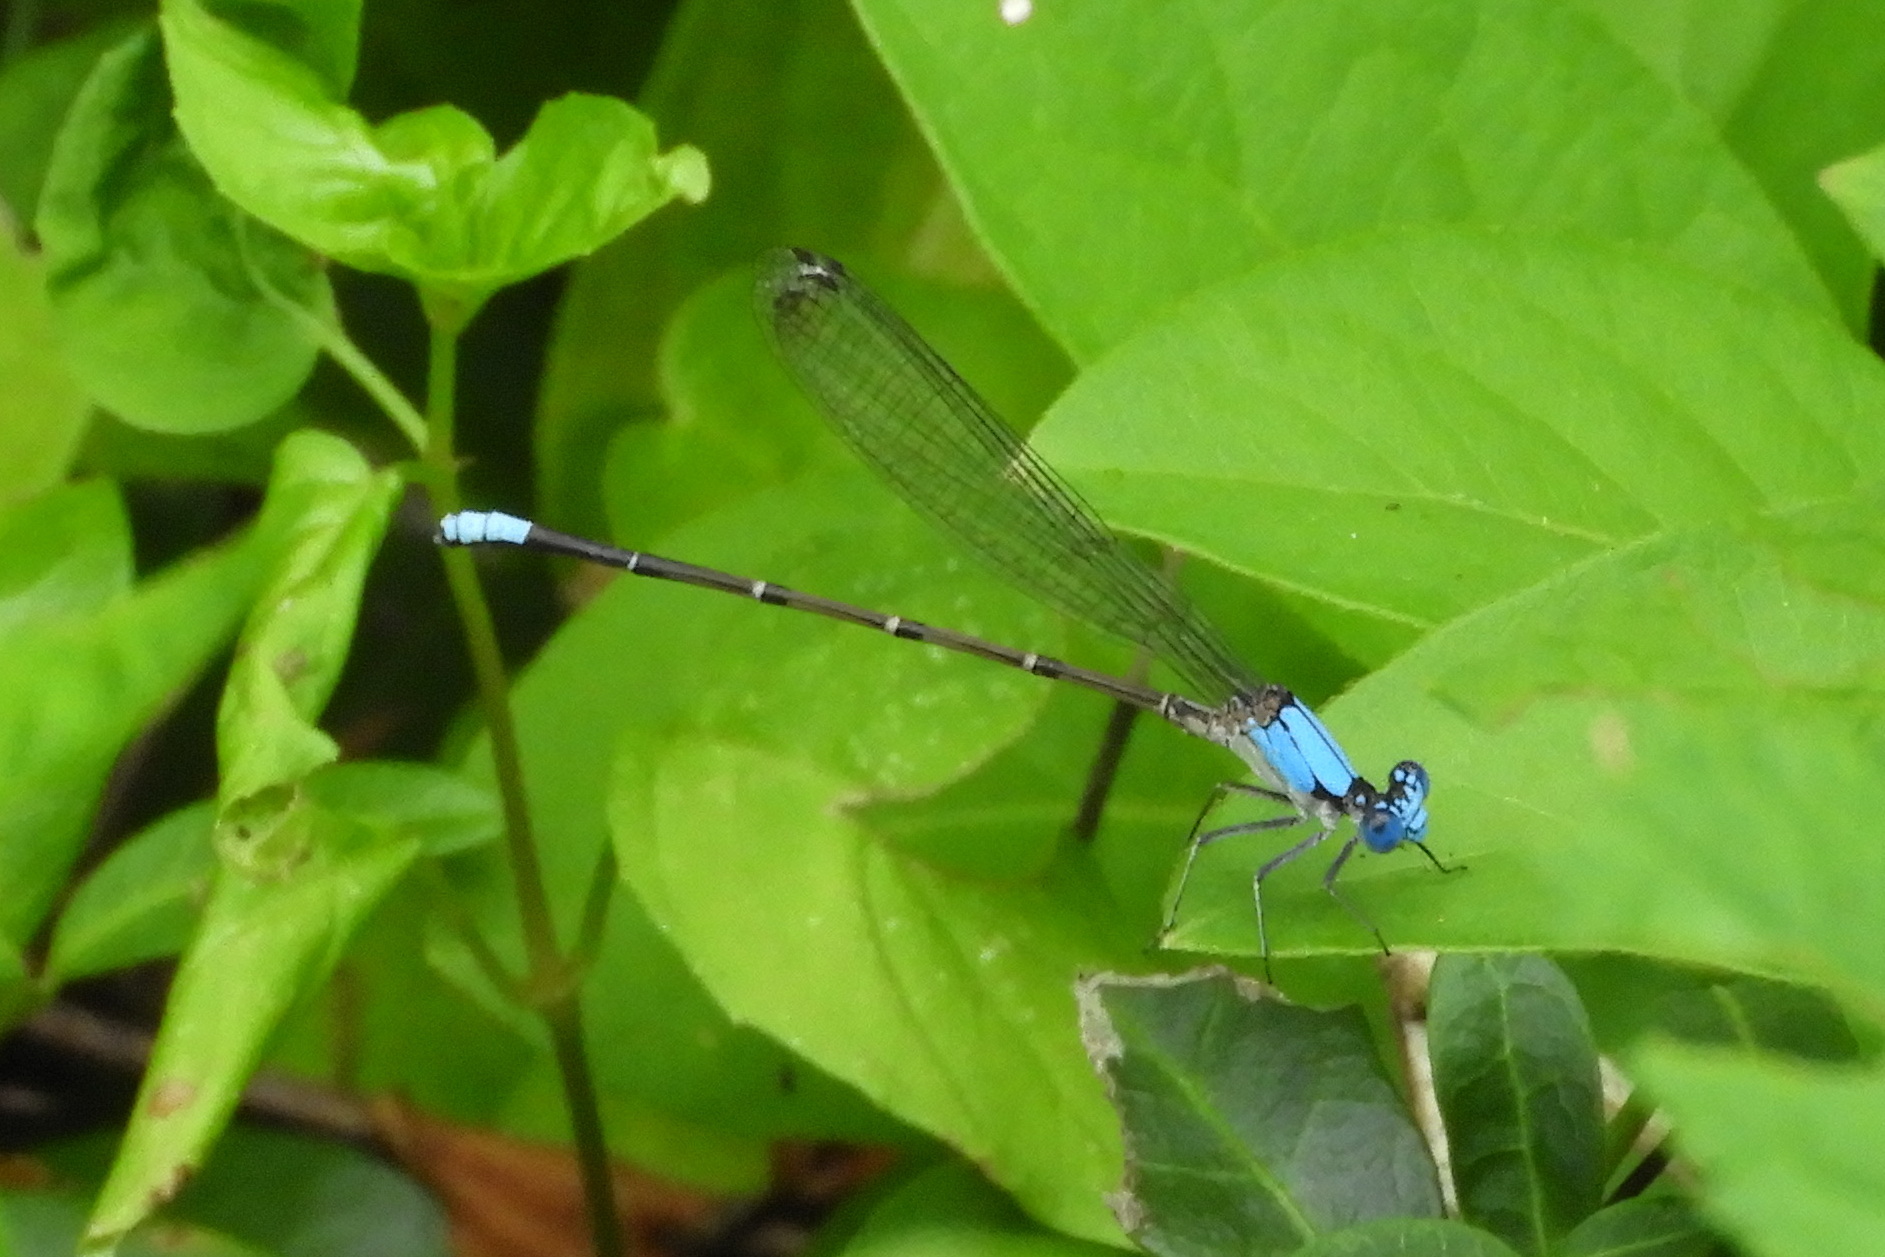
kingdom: Animalia
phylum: Arthropoda
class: Insecta
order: Odonata
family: Coenagrionidae
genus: Argia
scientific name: Argia apicalis
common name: Blue-fronted dancer
